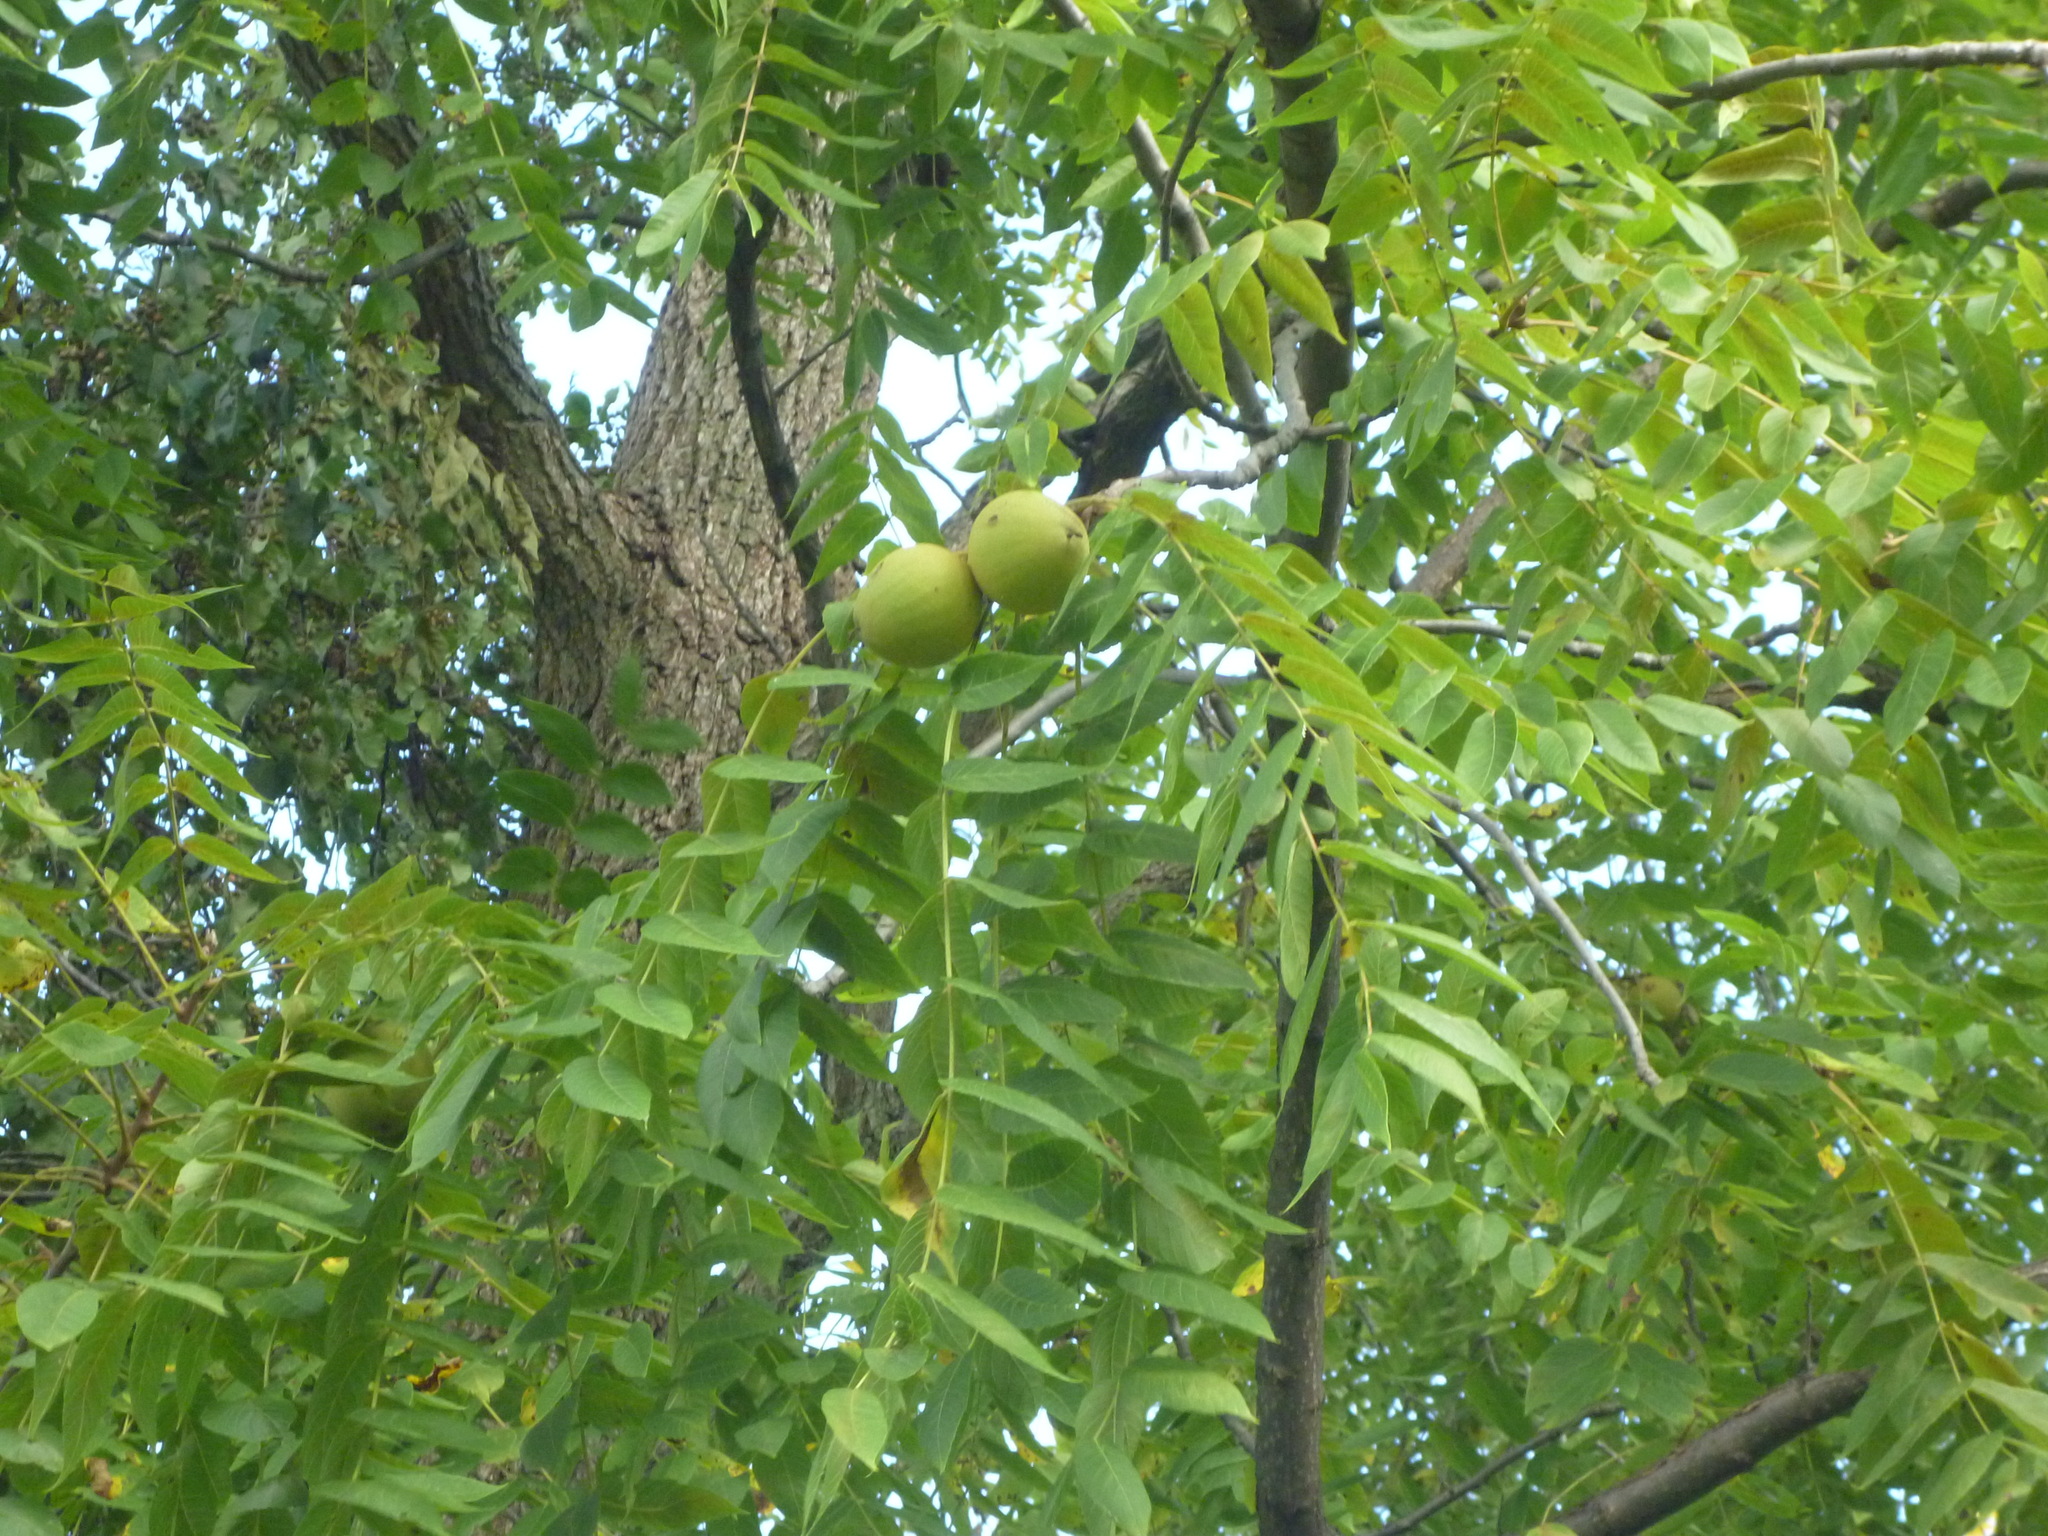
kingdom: Plantae
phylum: Tracheophyta
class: Magnoliopsida
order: Fagales
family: Juglandaceae
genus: Juglans
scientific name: Juglans nigra
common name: Black walnut
